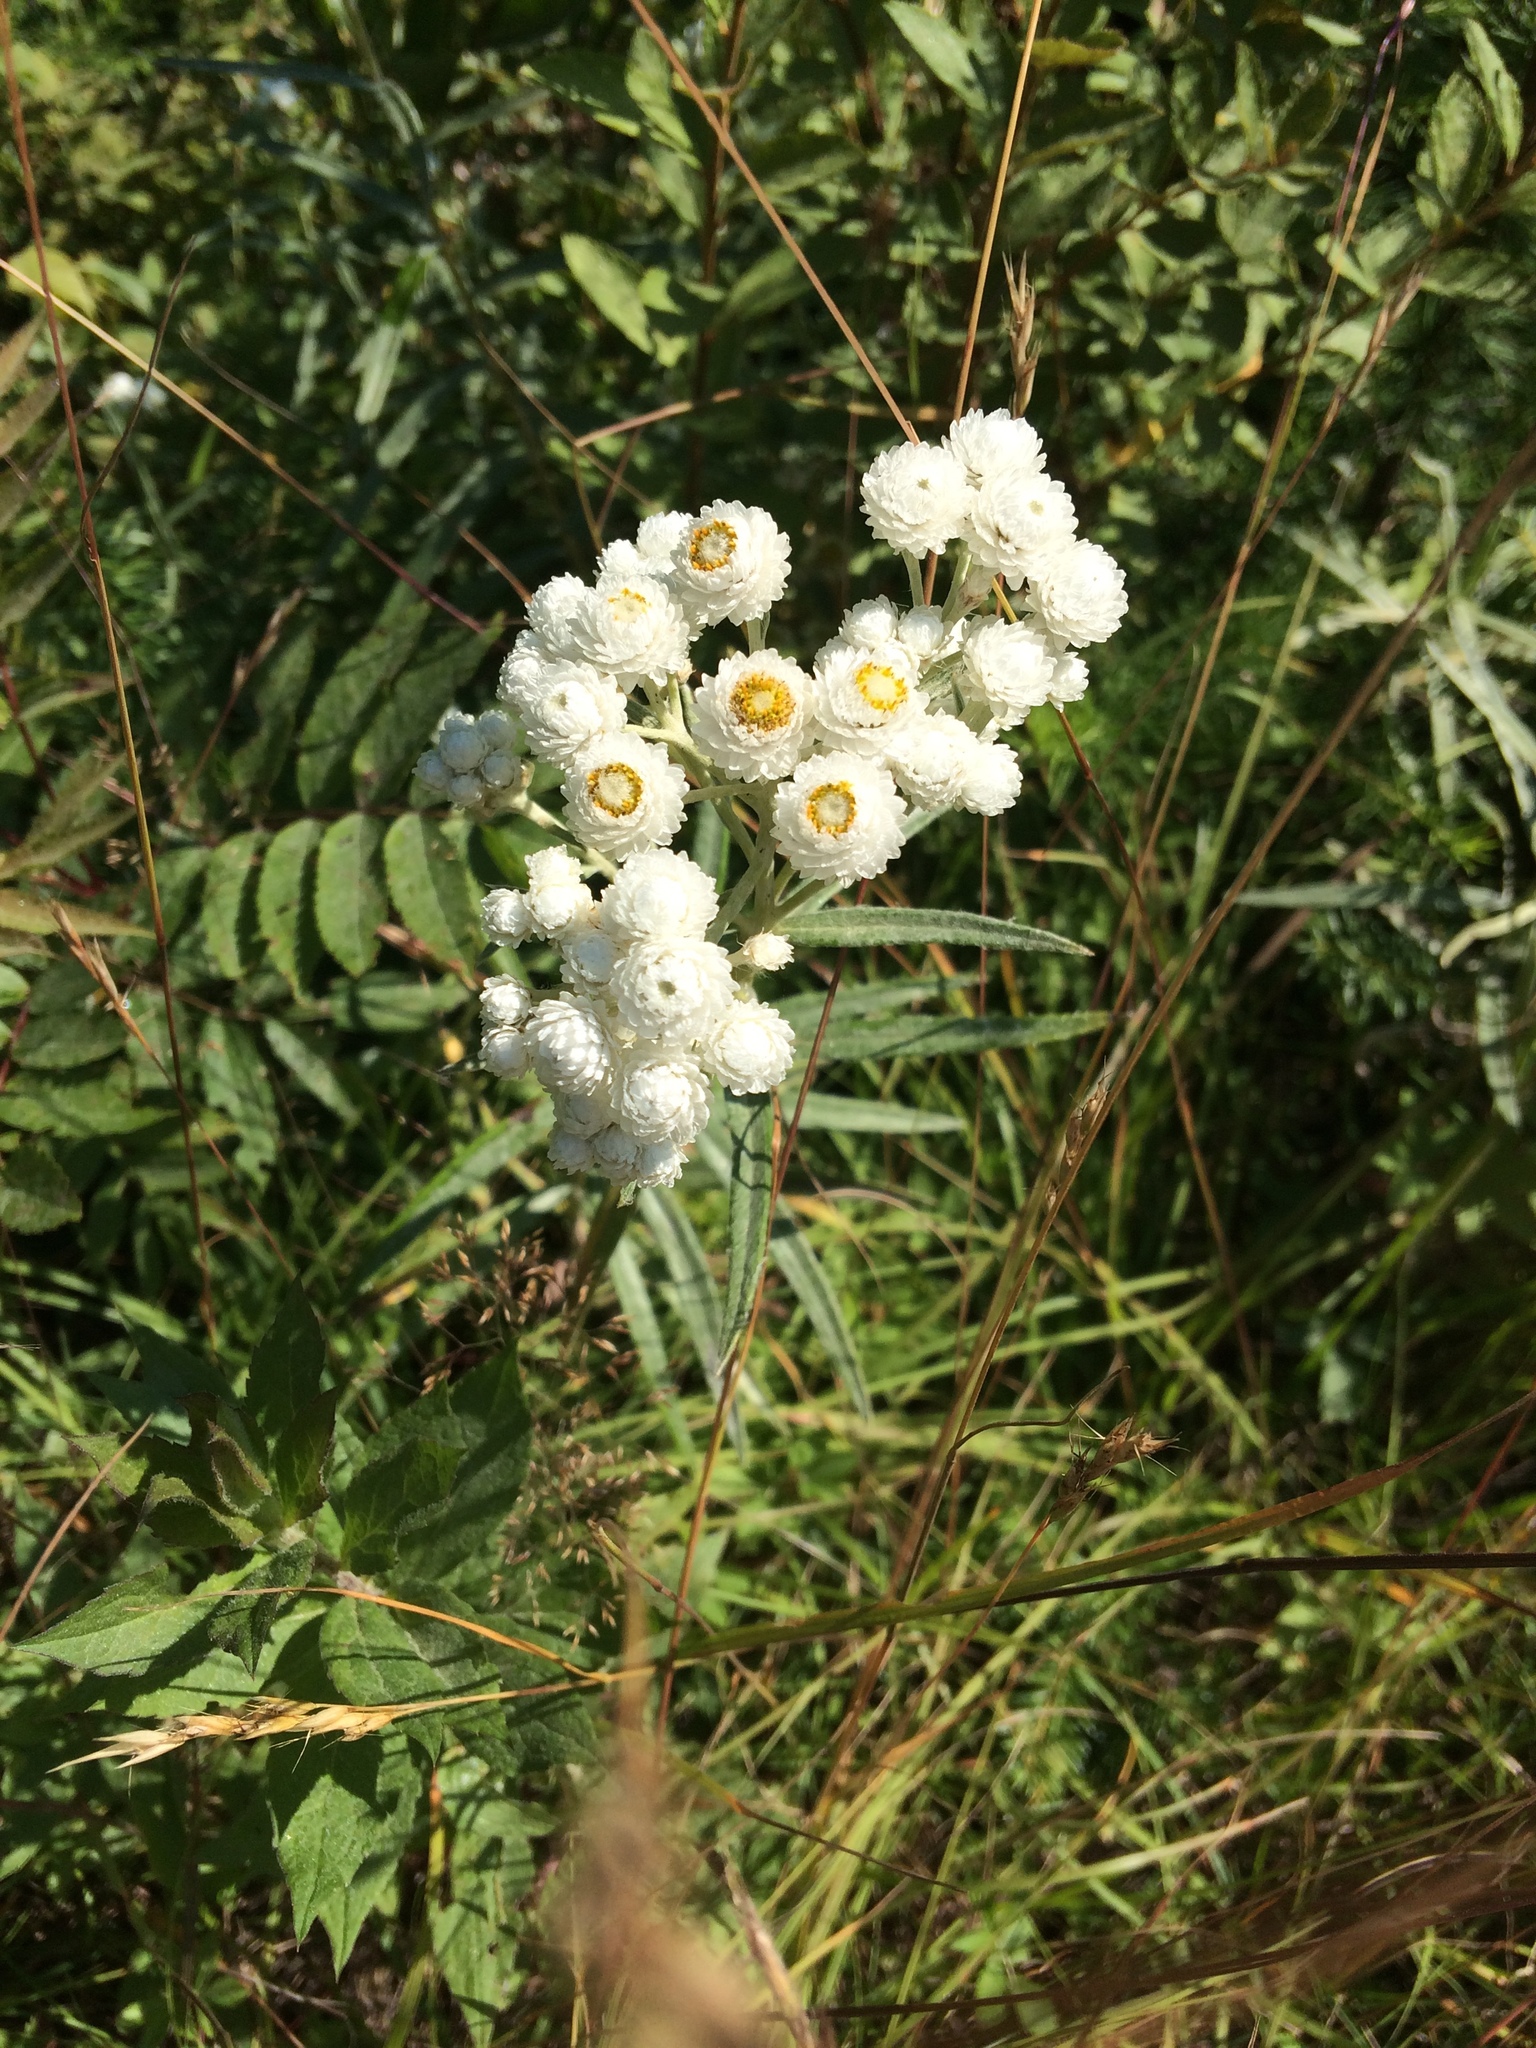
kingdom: Plantae
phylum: Tracheophyta
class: Magnoliopsida
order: Asterales
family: Asteraceae
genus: Anaphalis
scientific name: Anaphalis margaritacea
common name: Pearly everlasting
